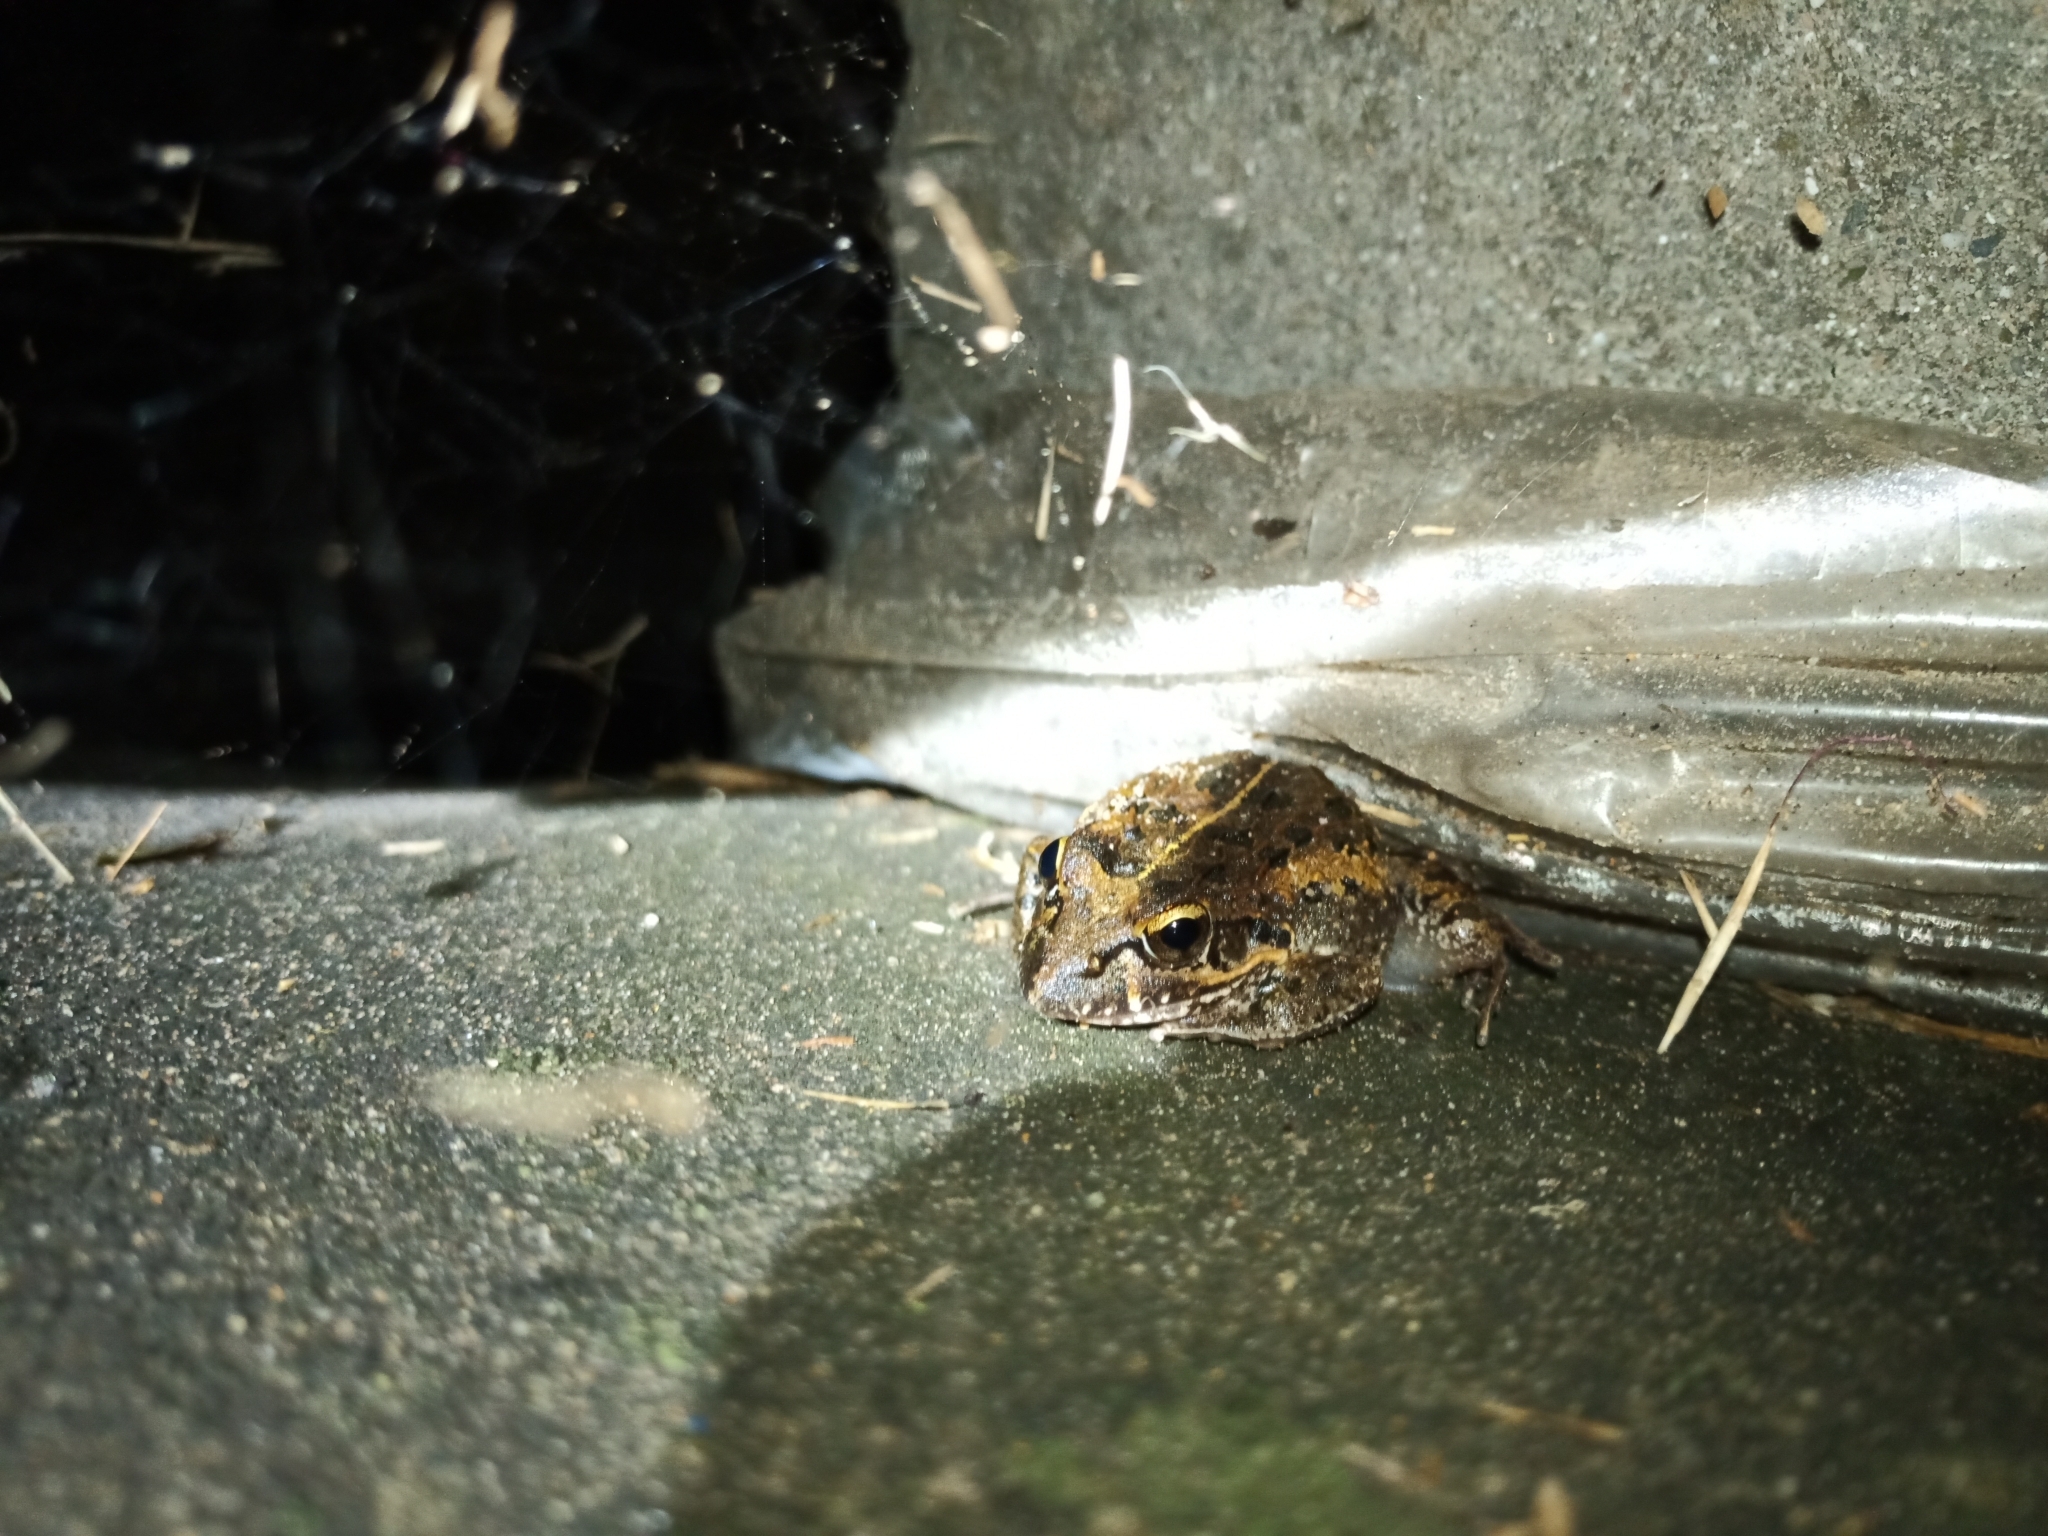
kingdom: Animalia
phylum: Chordata
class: Amphibia
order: Anura
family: Pyxicephalidae
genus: Strongylopus
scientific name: Strongylopus grayii
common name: Gray's stream frog
